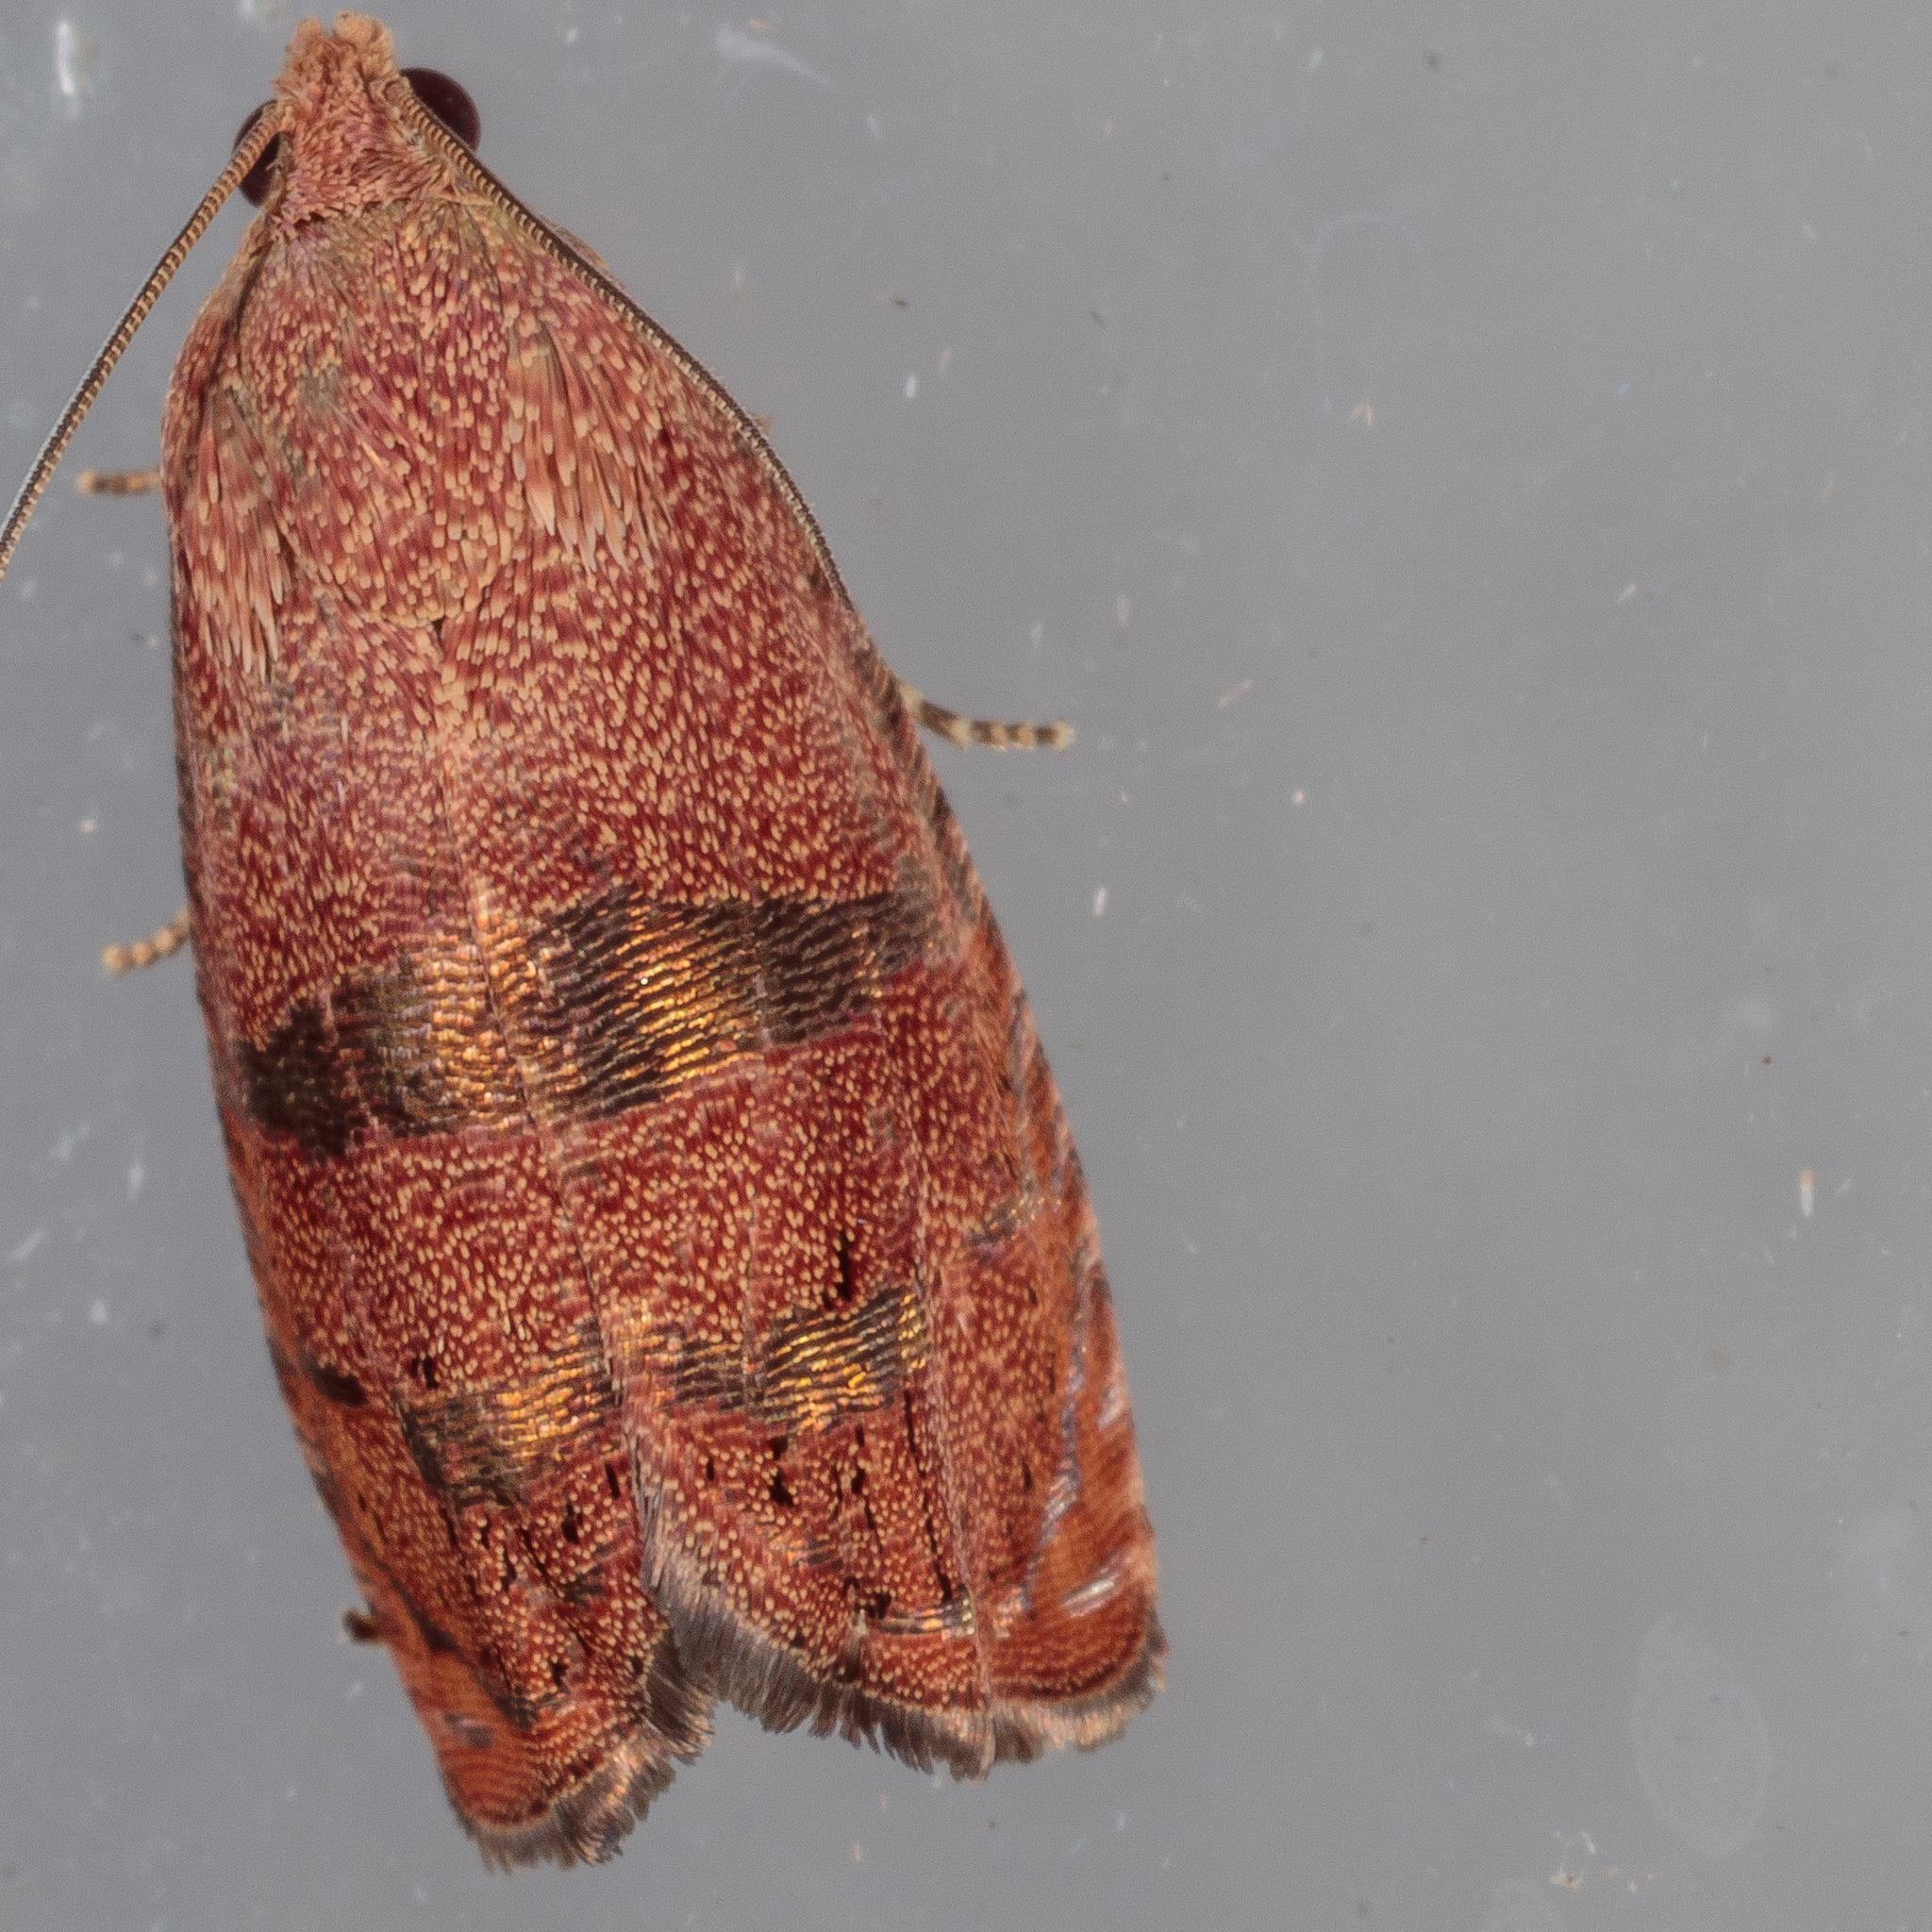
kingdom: Animalia
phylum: Arthropoda
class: Insecta
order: Lepidoptera
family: Tortricidae
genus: Cydia
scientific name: Cydia latiferreana
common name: Filbertworm moth
